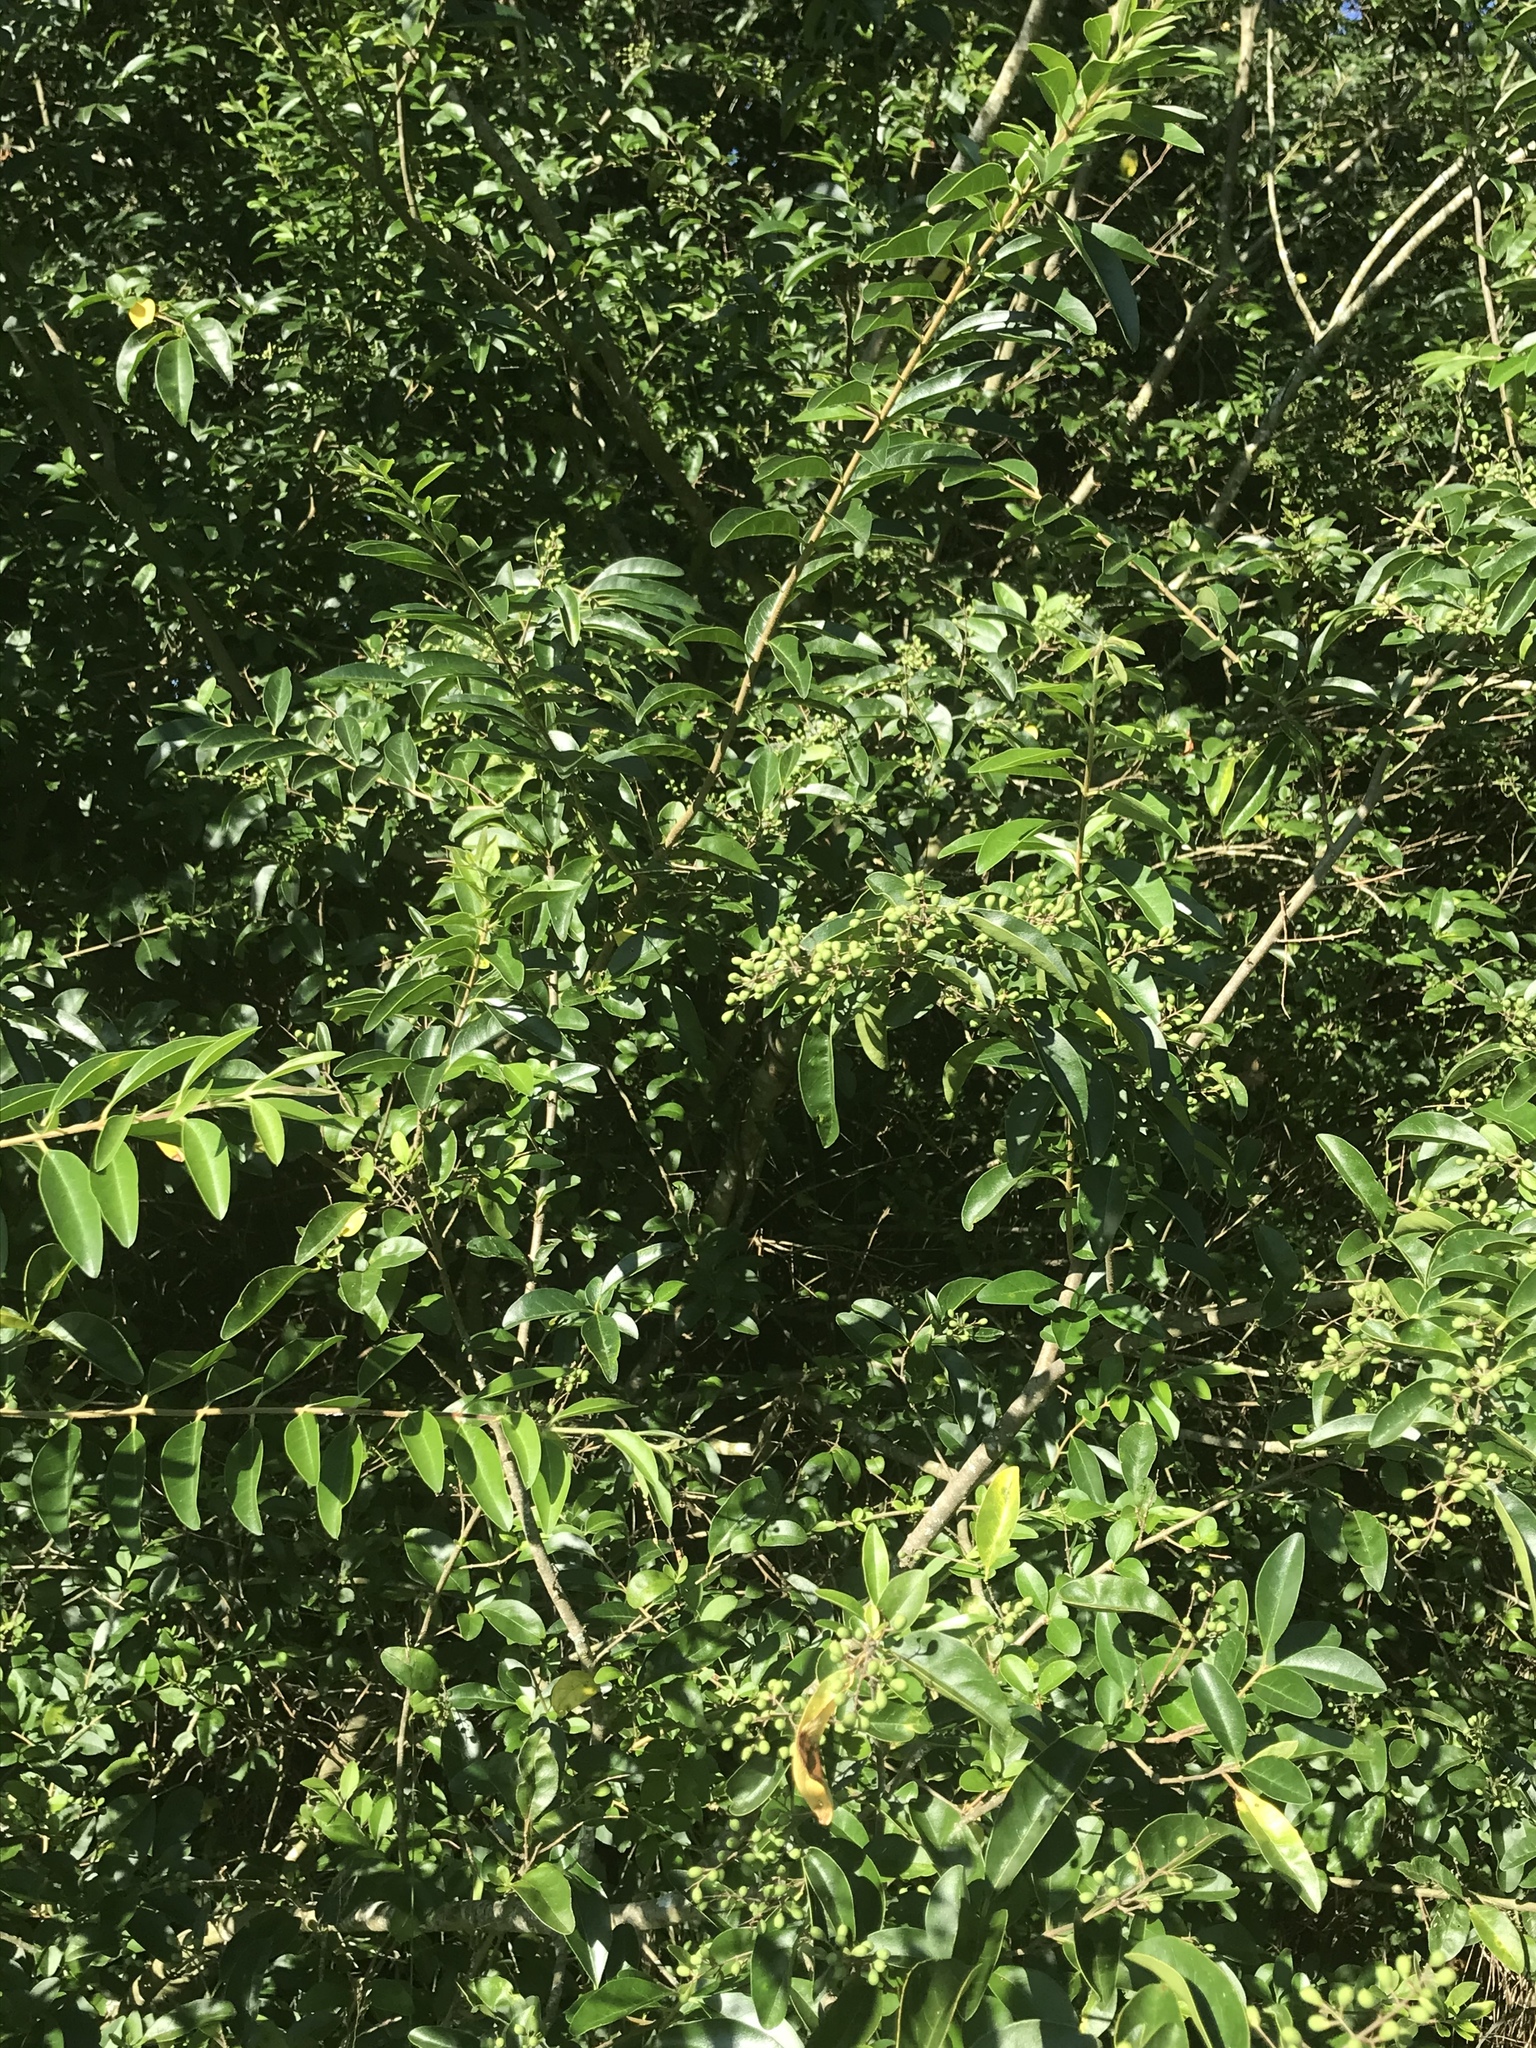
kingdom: Plantae
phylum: Tracheophyta
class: Magnoliopsida
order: Lamiales
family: Oleaceae
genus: Ligustrum
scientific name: Ligustrum sinense
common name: Chinese privet
